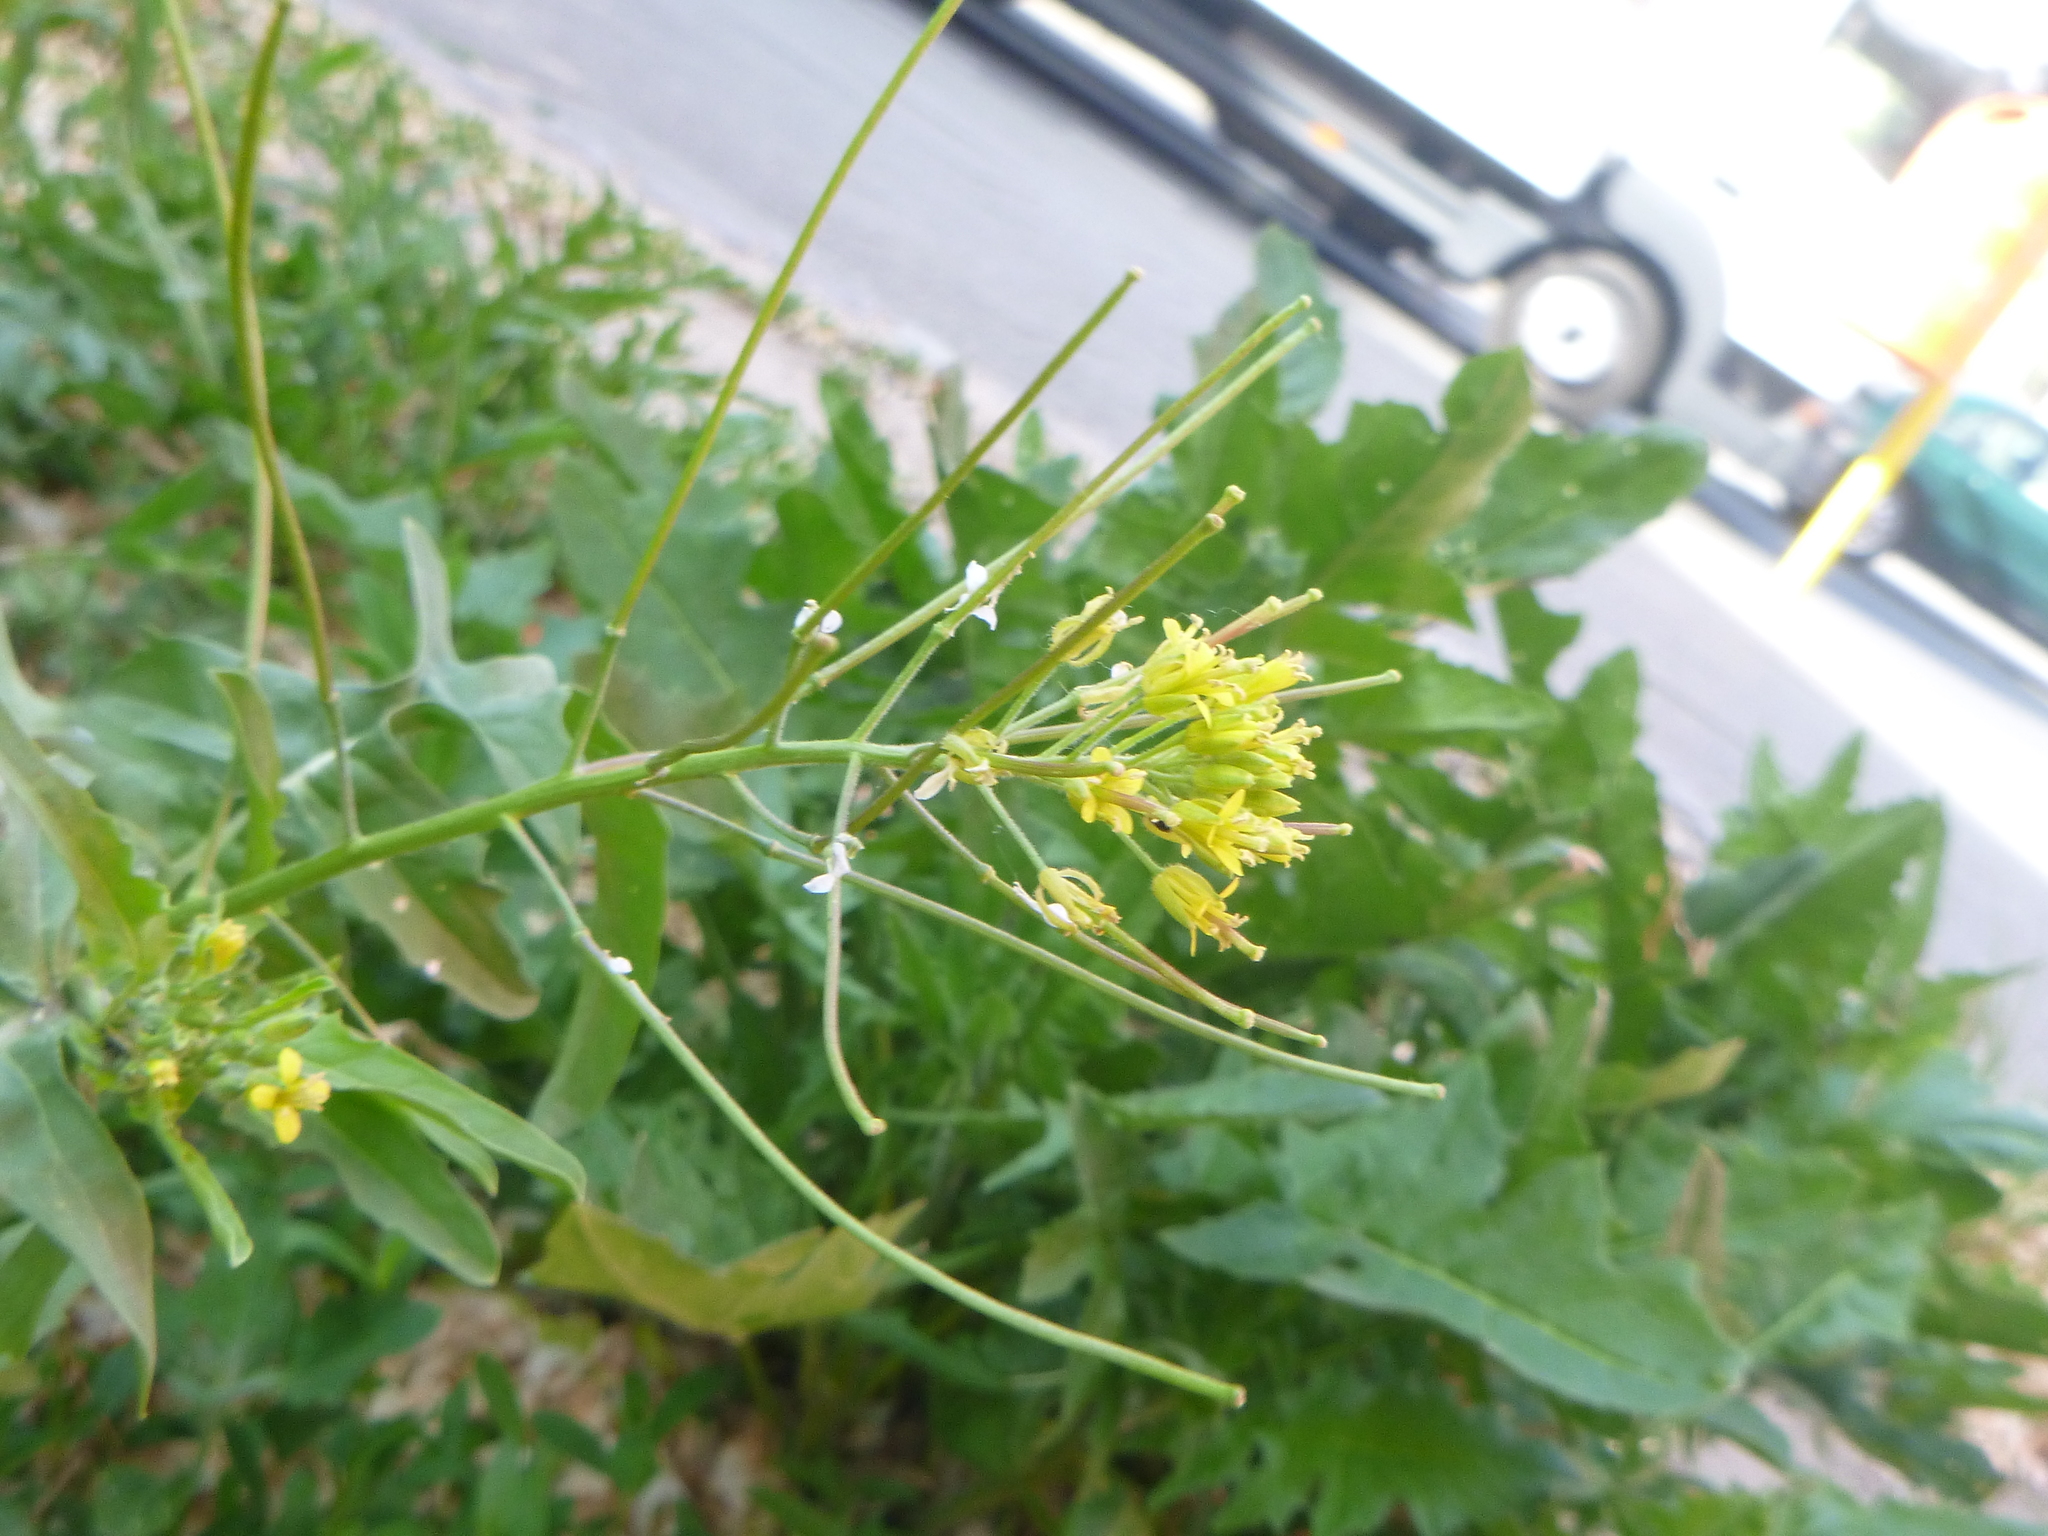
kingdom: Plantae
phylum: Tracheophyta
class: Magnoliopsida
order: Brassicales
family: Brassicaceae
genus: Sisymbrium
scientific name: Sisymbrium irio
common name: London rocket
